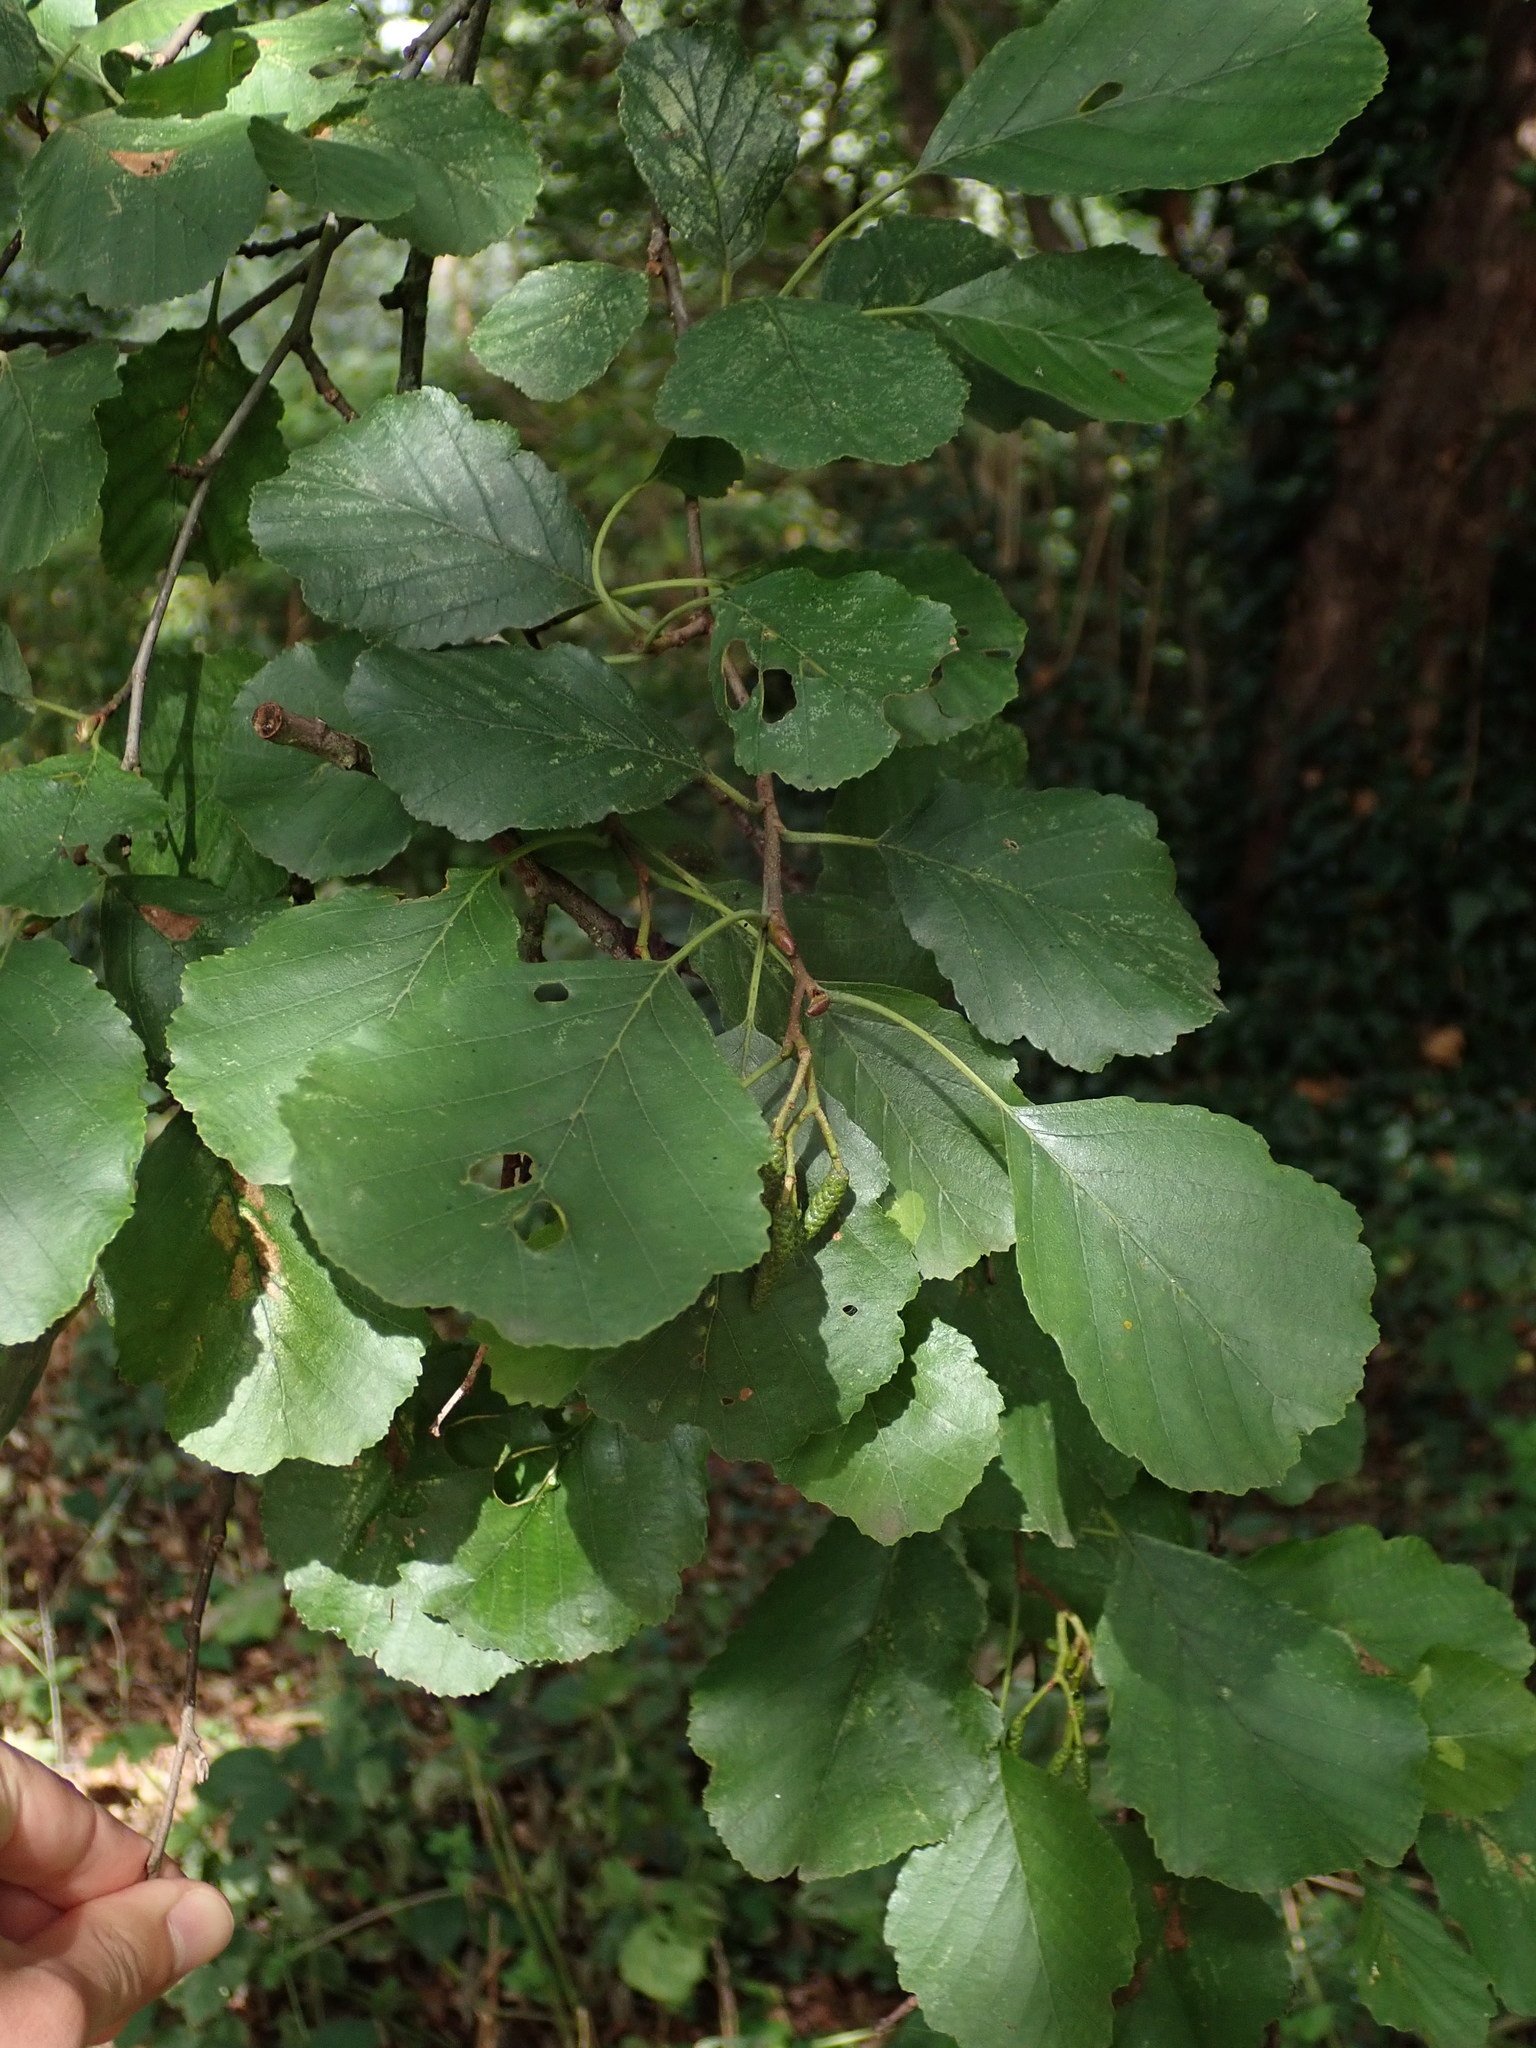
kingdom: Plantae
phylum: Tracheophyta
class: Magnoliopsida
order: Fagales
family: Betulaceae
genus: Alnus
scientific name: Alnus glutinosa
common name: Black alder
